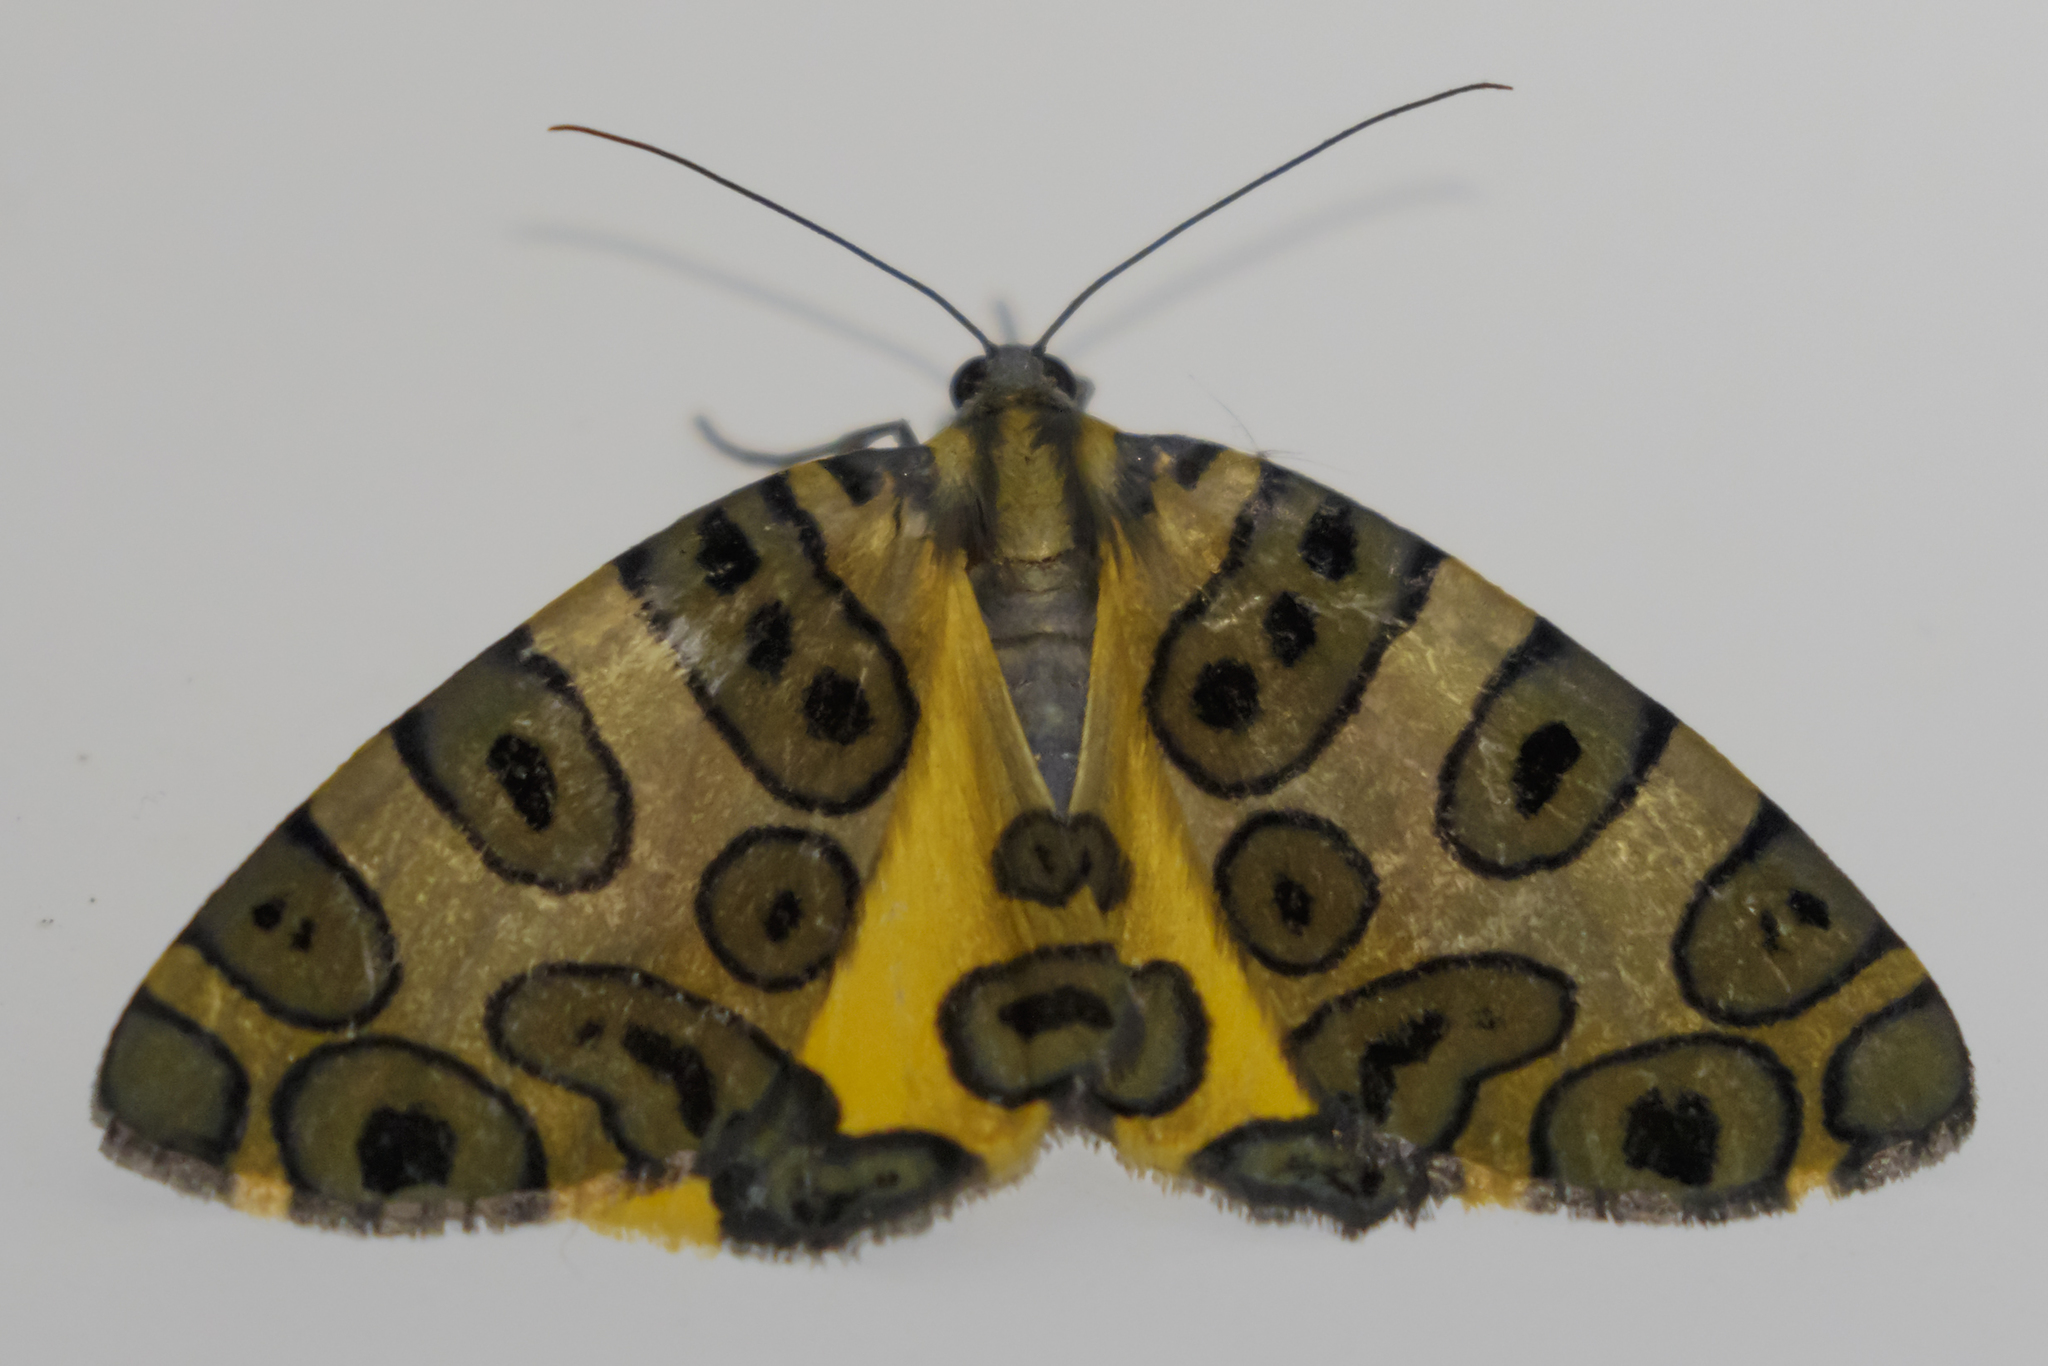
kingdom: Animalia
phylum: Arthropoda
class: Insecta
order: Lepidoptera
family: Geometridae
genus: Pantherodes
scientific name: Pantherodes pardalaria
